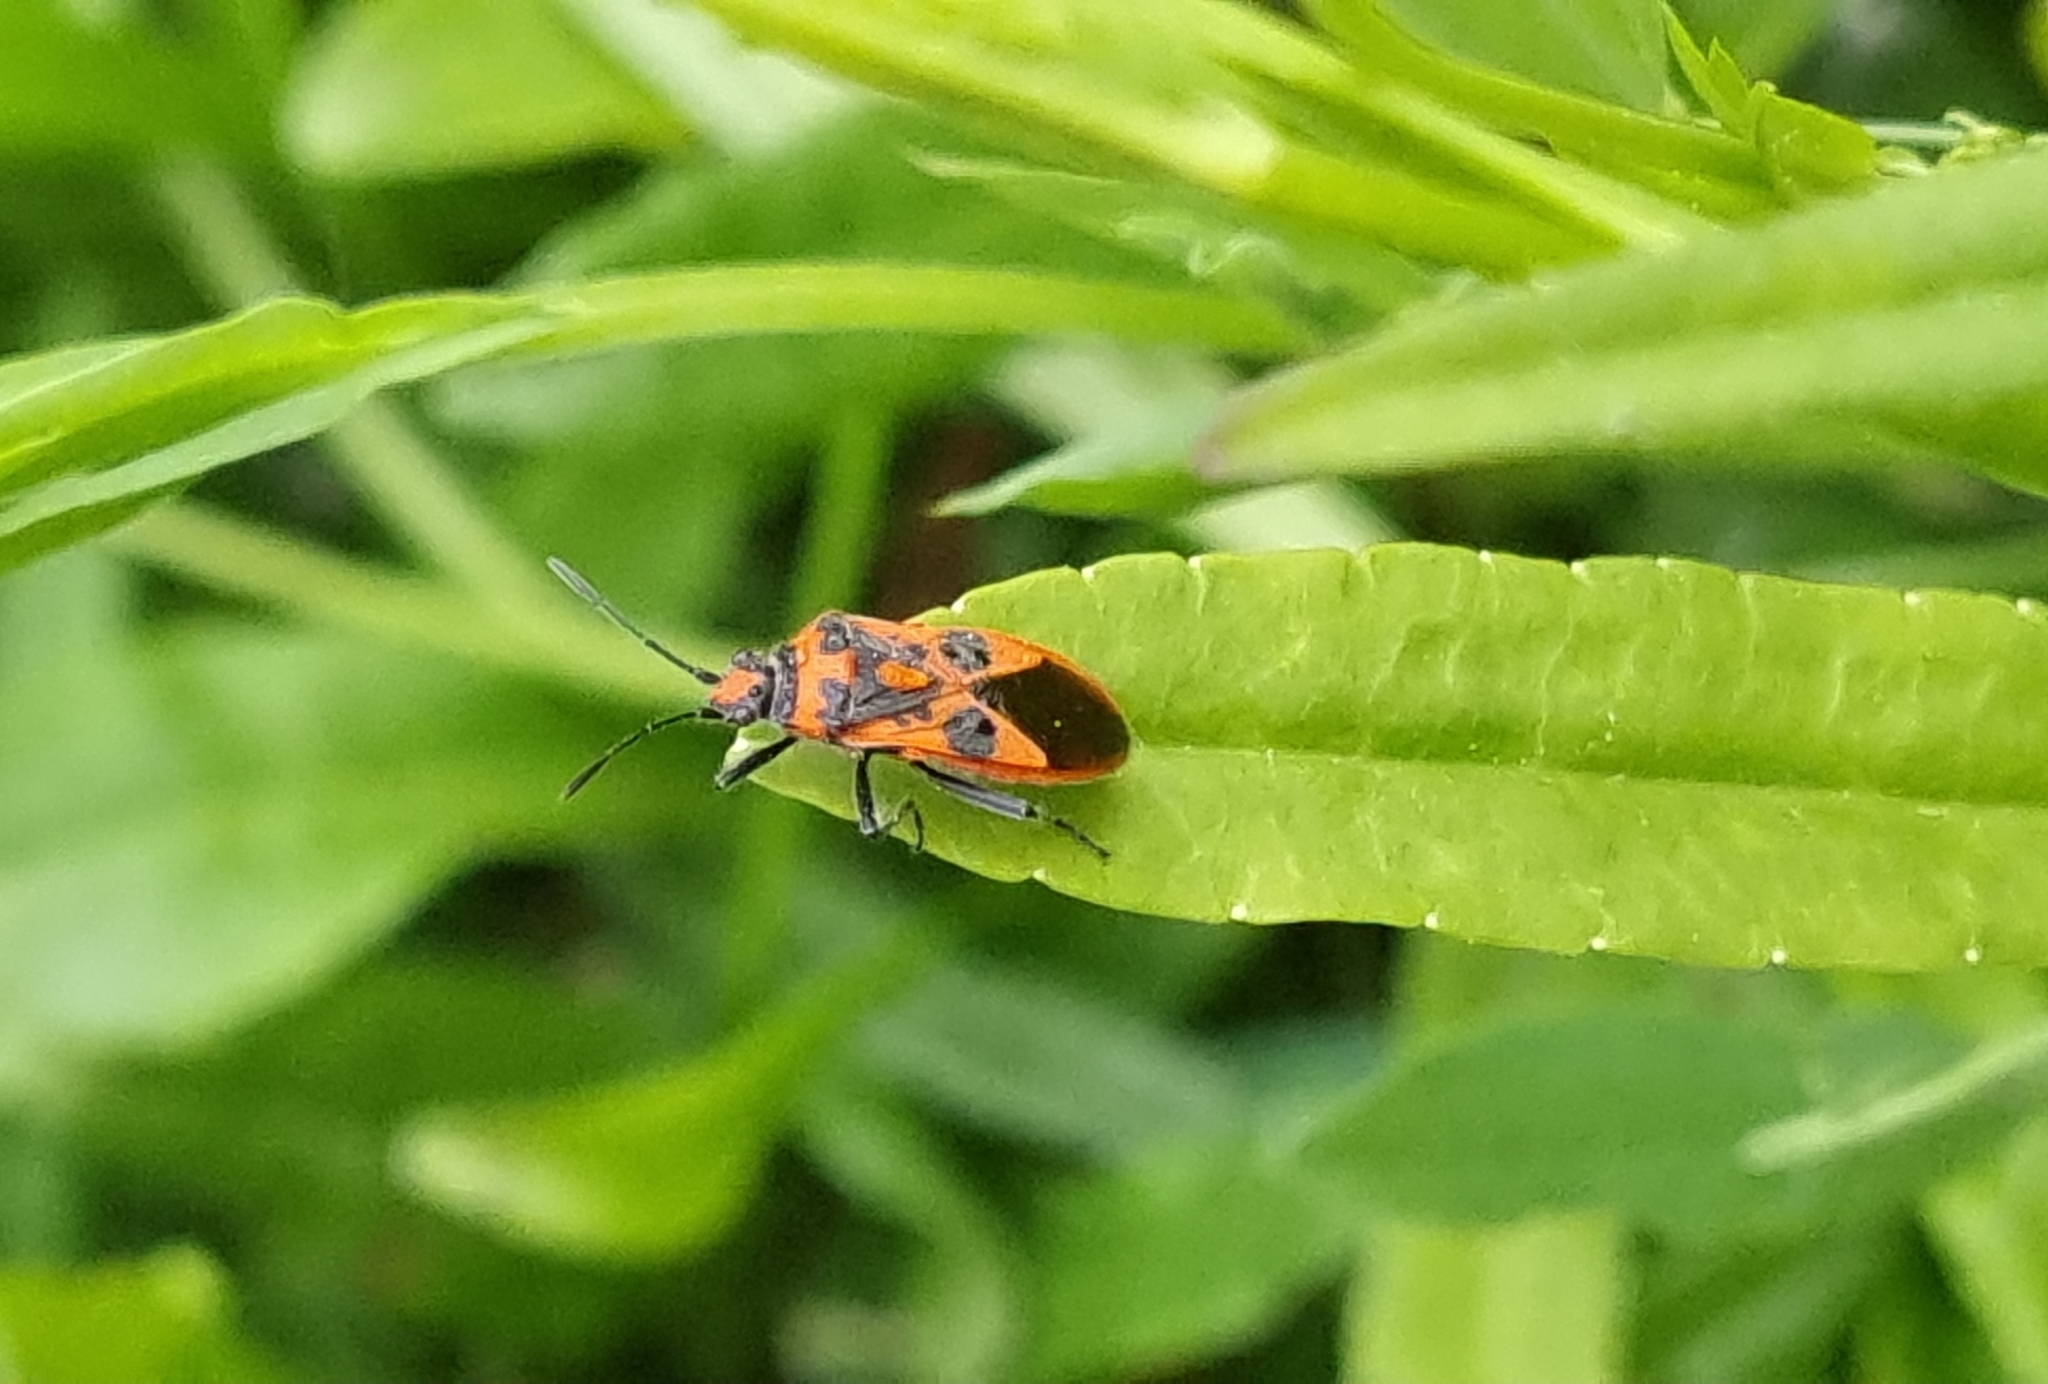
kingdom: Animalia
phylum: Arthropoda
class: Insecta
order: Hemiptera
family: Rhopalidae
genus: Corizus
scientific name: Corizus hyoscyami
